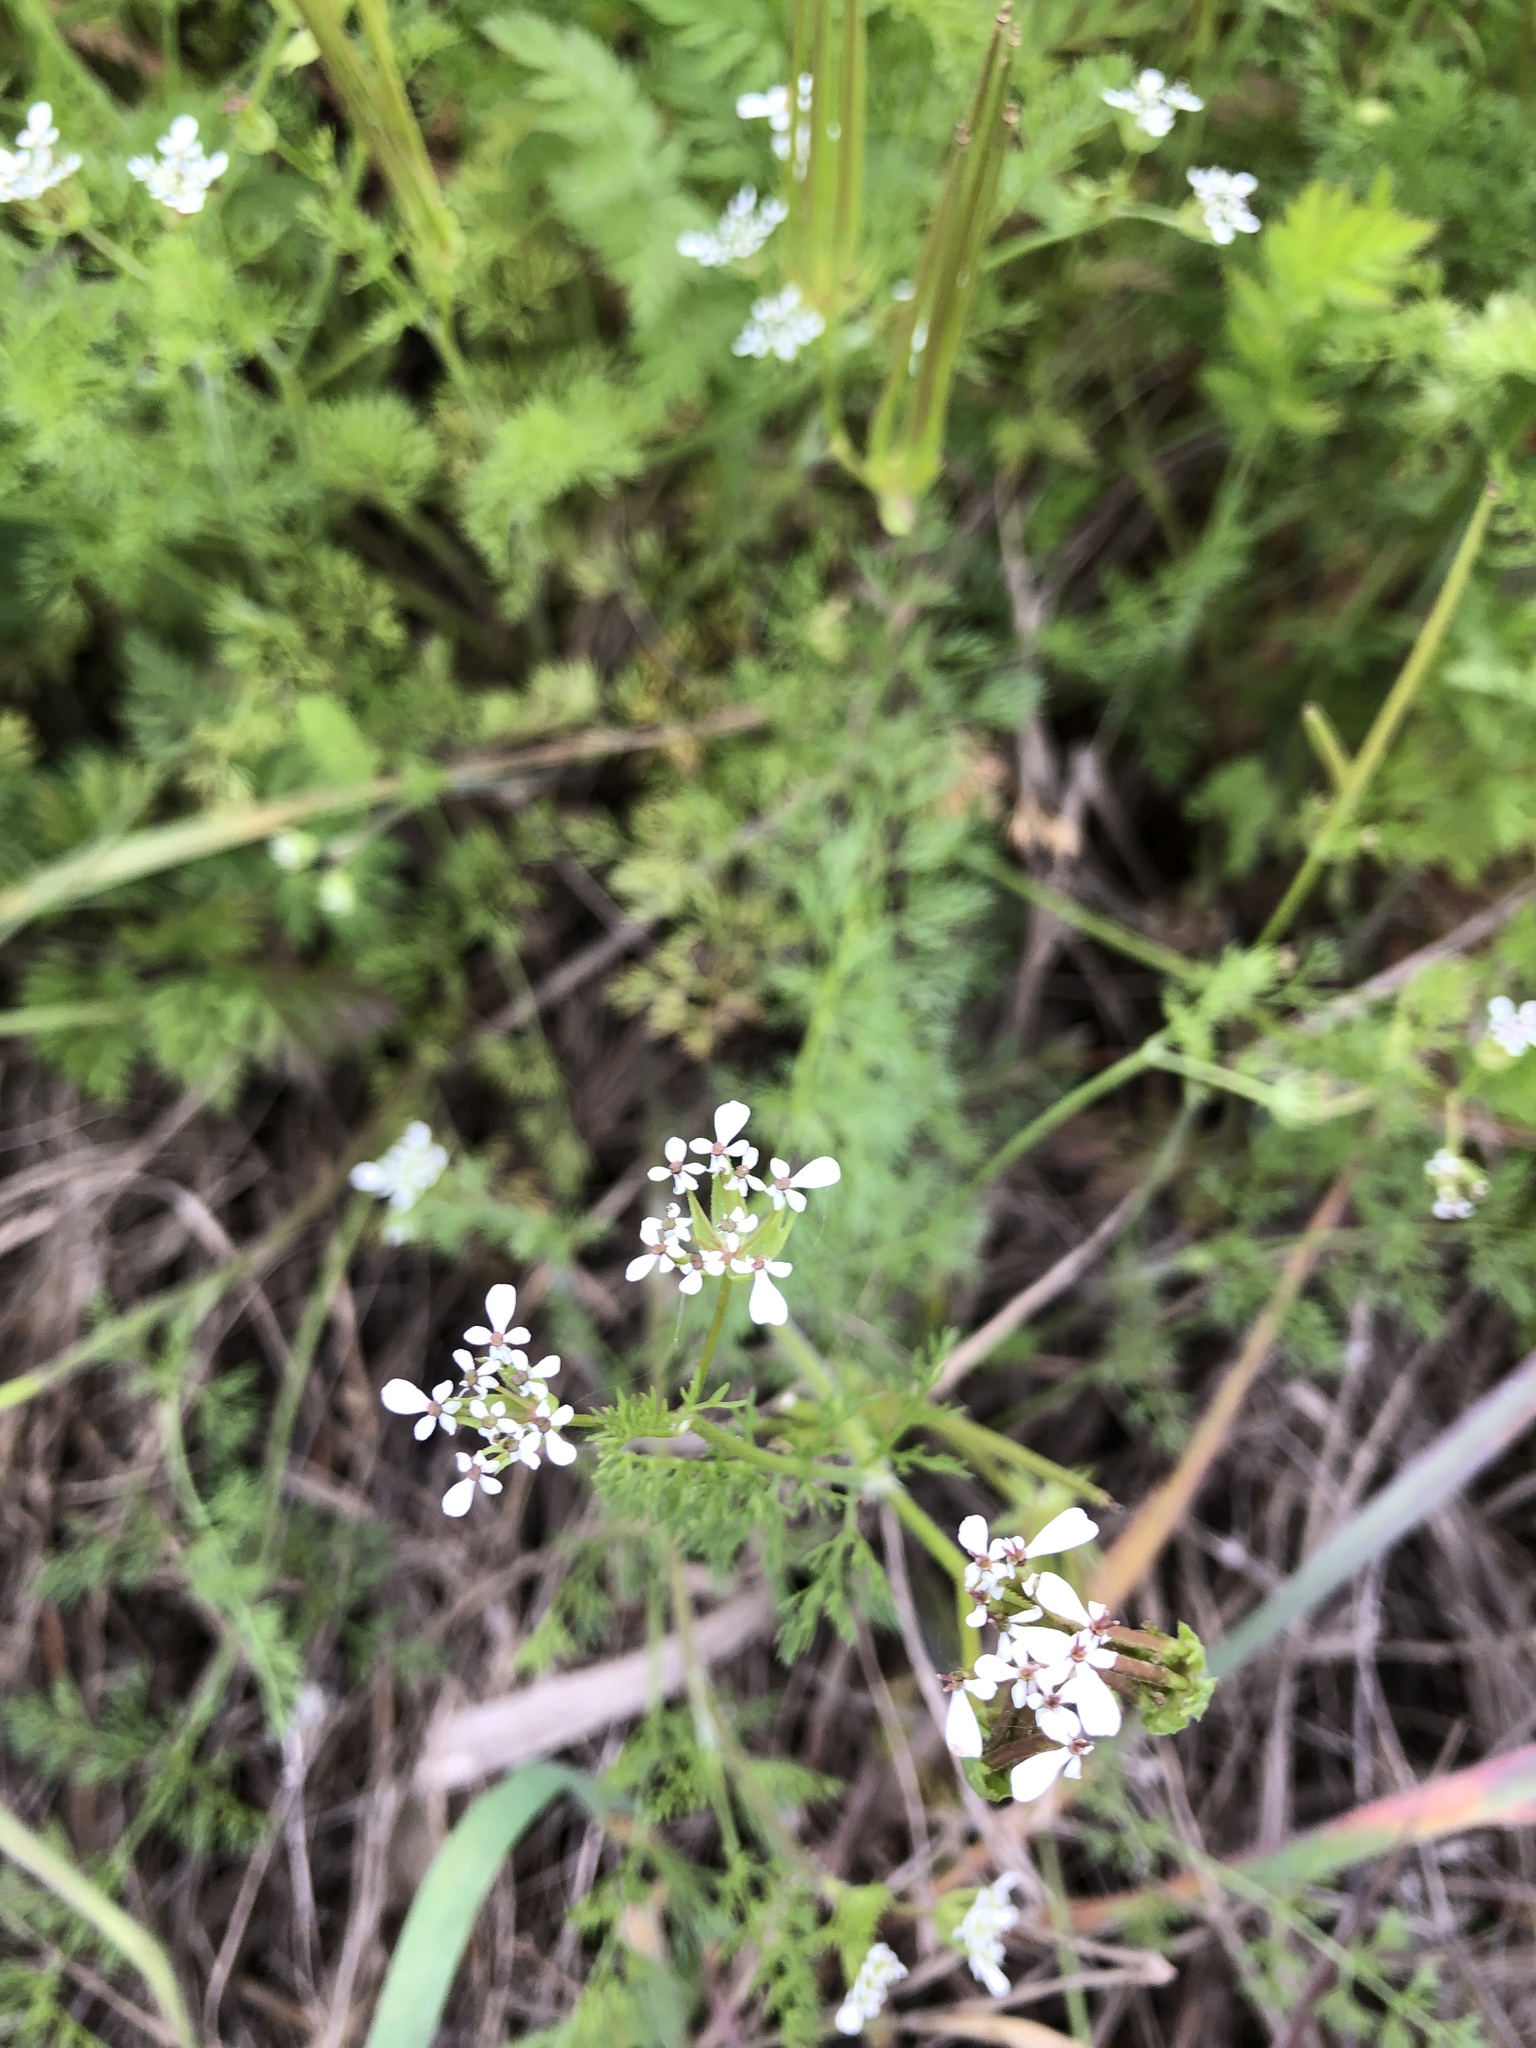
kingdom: Plantae
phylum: Tracheophyta
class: Magnoliopsida
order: Apiales
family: Apiaceae
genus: Scandix
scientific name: Scandix pecten-veneris
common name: Shepherd's-needle
